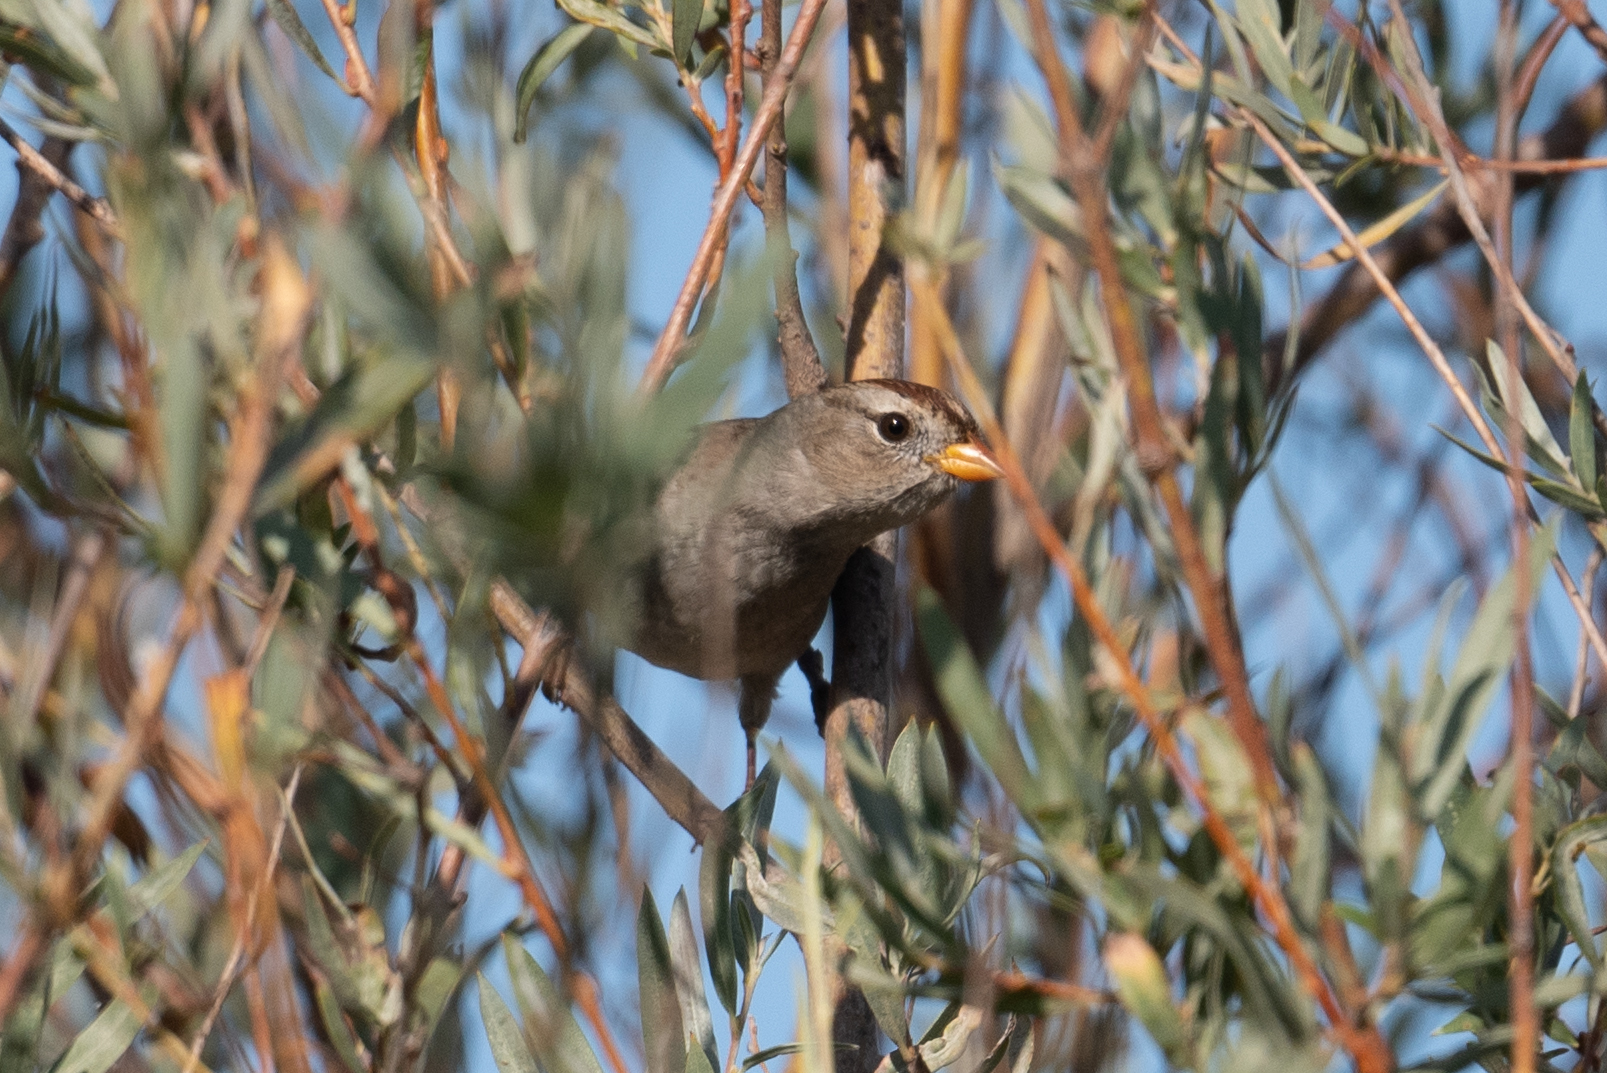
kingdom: Animalia
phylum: Chordata
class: Aves
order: Passeriformes
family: Passerellidae
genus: Zonotrichia
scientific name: Zonotrichia leucophrys
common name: White-crowned sparrow
